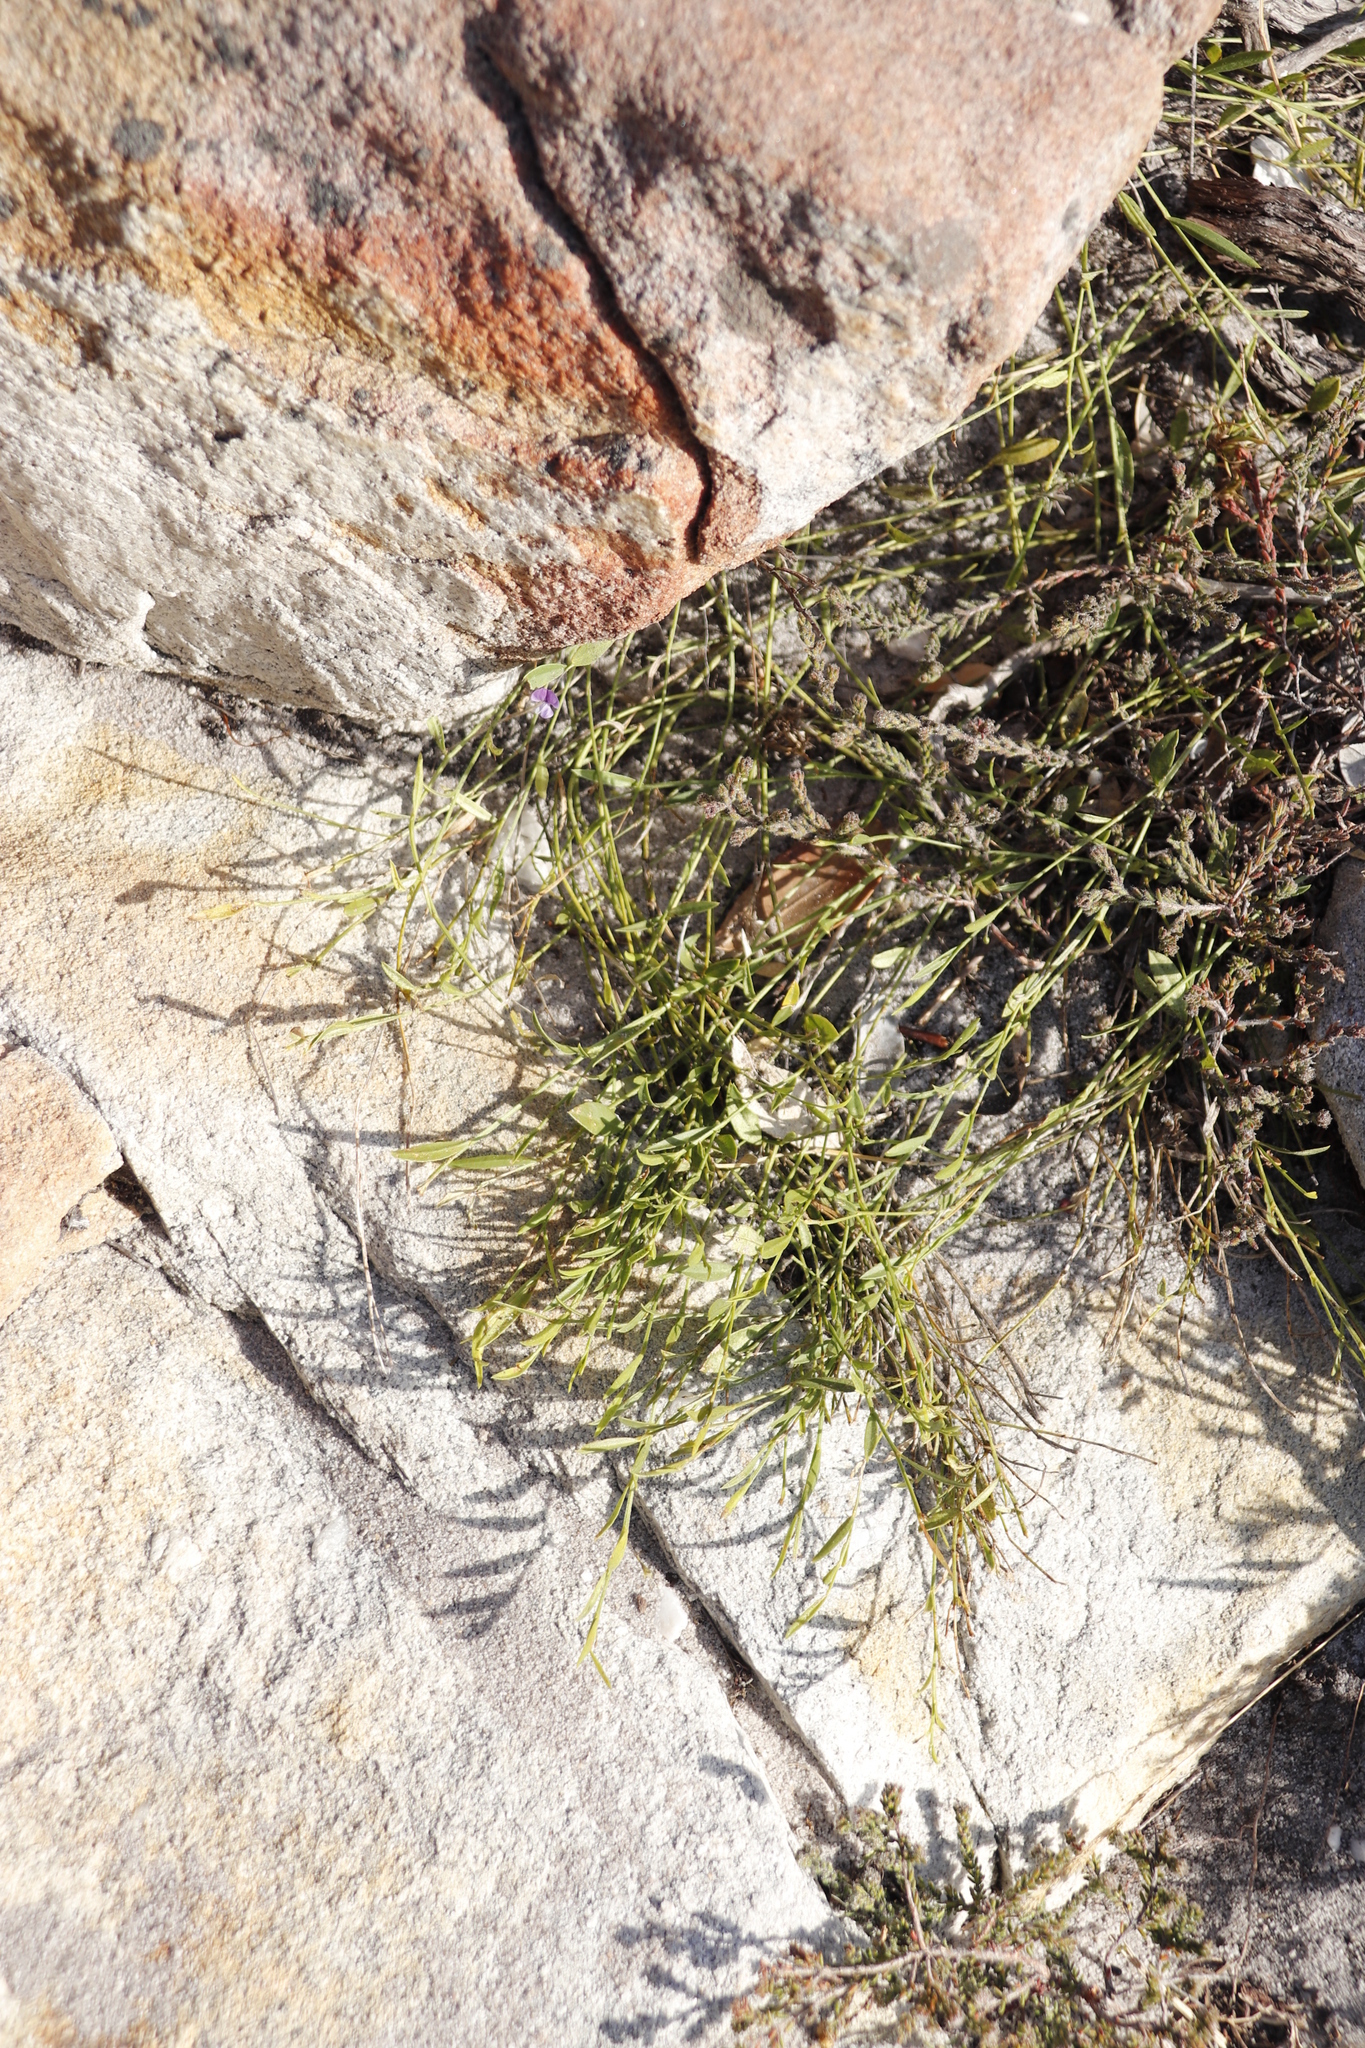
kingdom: Plantae
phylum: Tracheophyta
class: Magnoliopsida
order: Fabales
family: Fabaceae
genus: Psoralea
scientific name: Psoralea asarina
